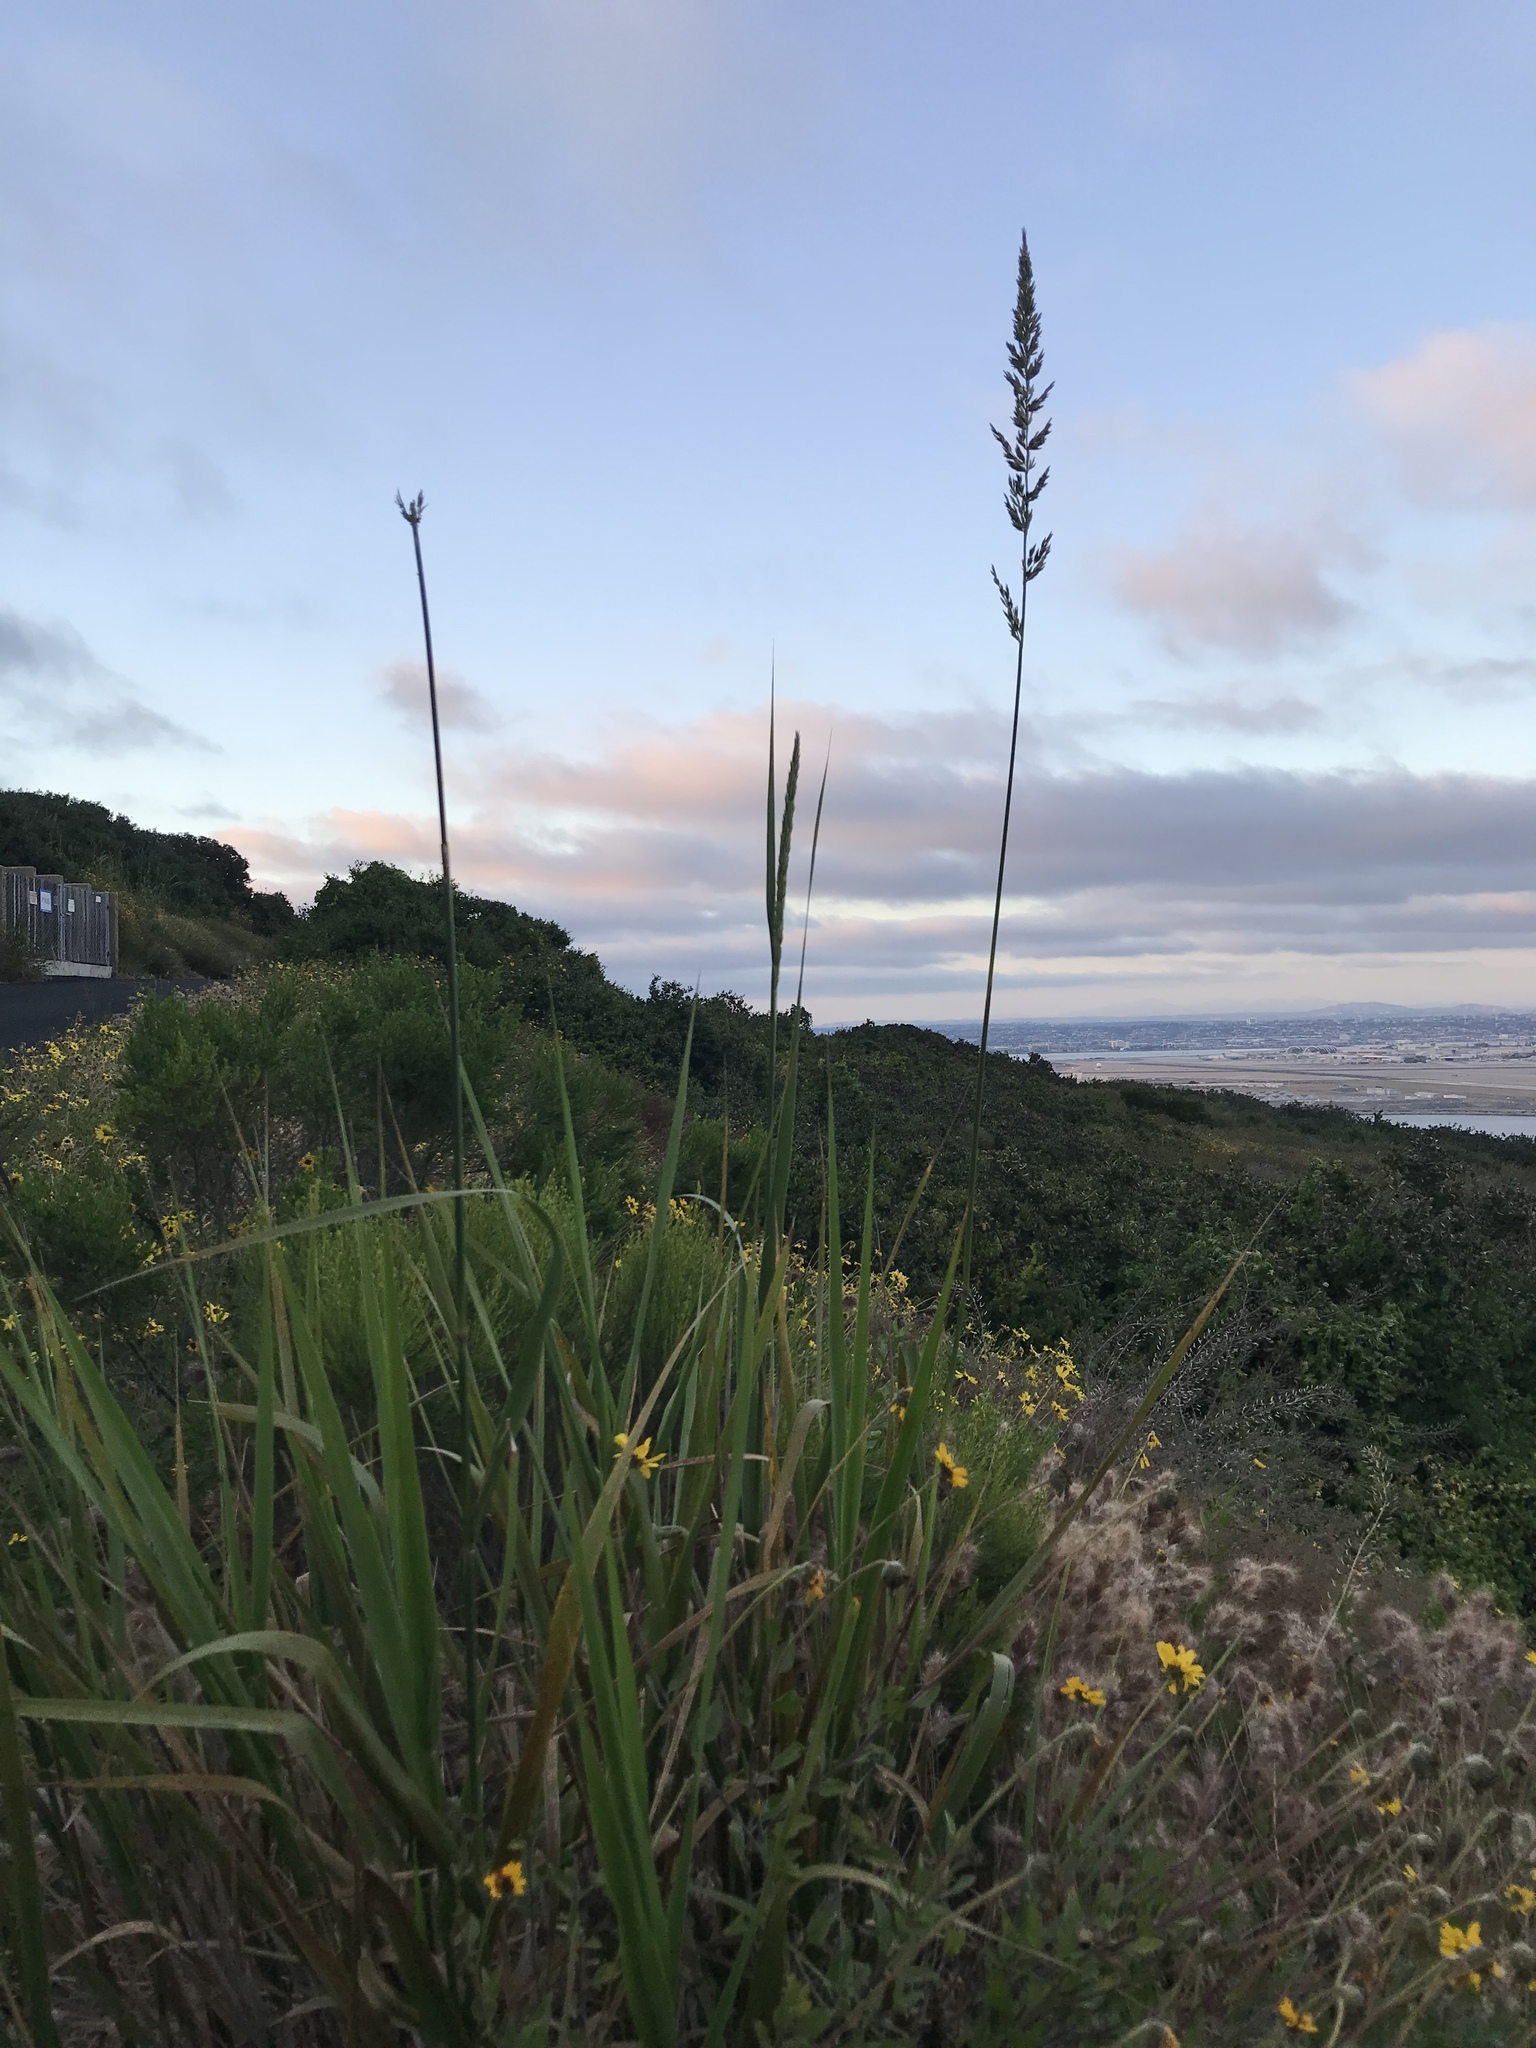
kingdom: Plantae
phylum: Tracheophyta
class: Liliopsida
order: Poales
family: Poaceae
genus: Leymus
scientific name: Leymus condensatus
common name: Giant wild rye
